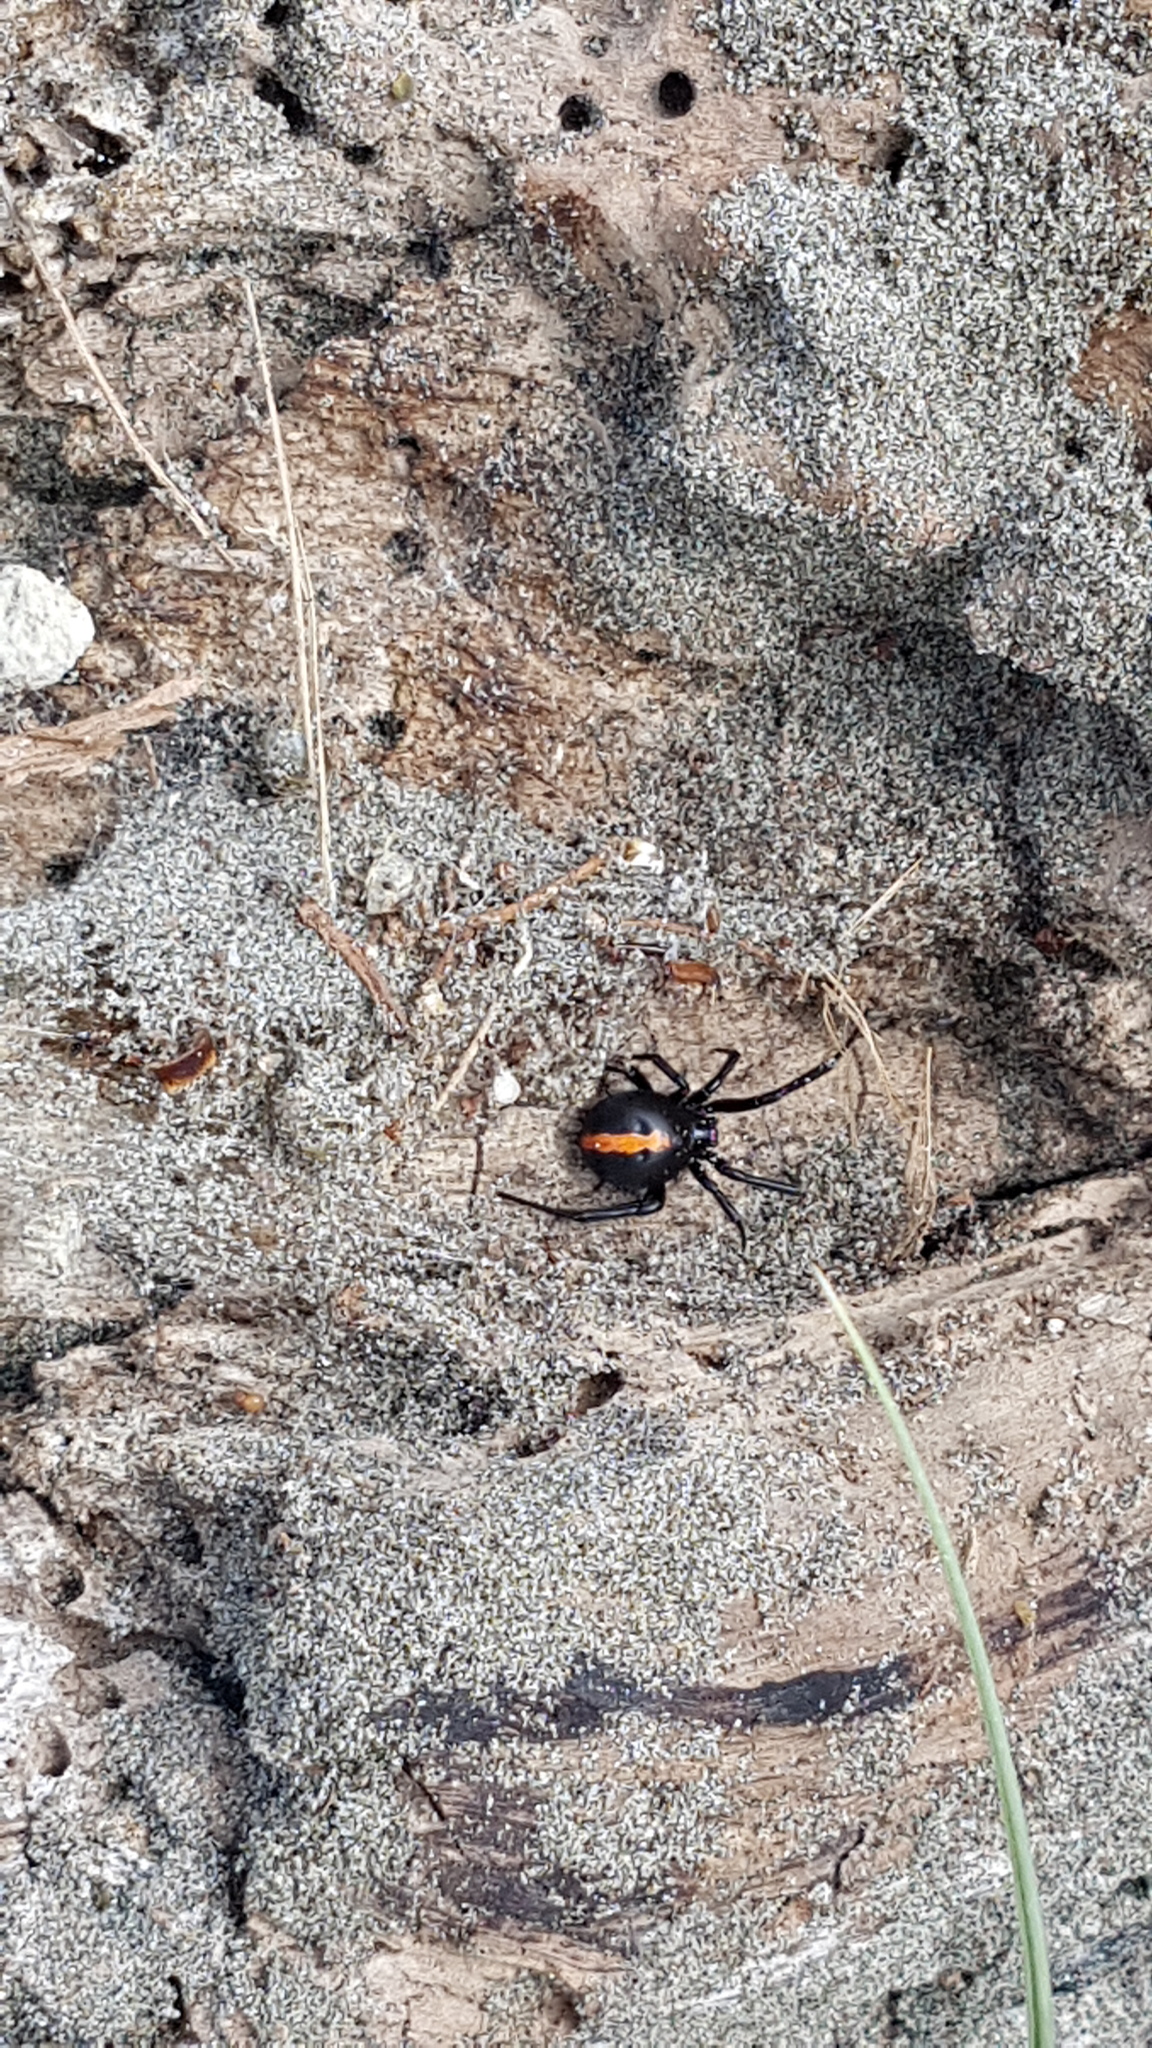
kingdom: Animalia
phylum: Arthropoda
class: Arachnida
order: Araneae
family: Theridiidae
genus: Latrodectus
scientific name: Latrodectus katipo
